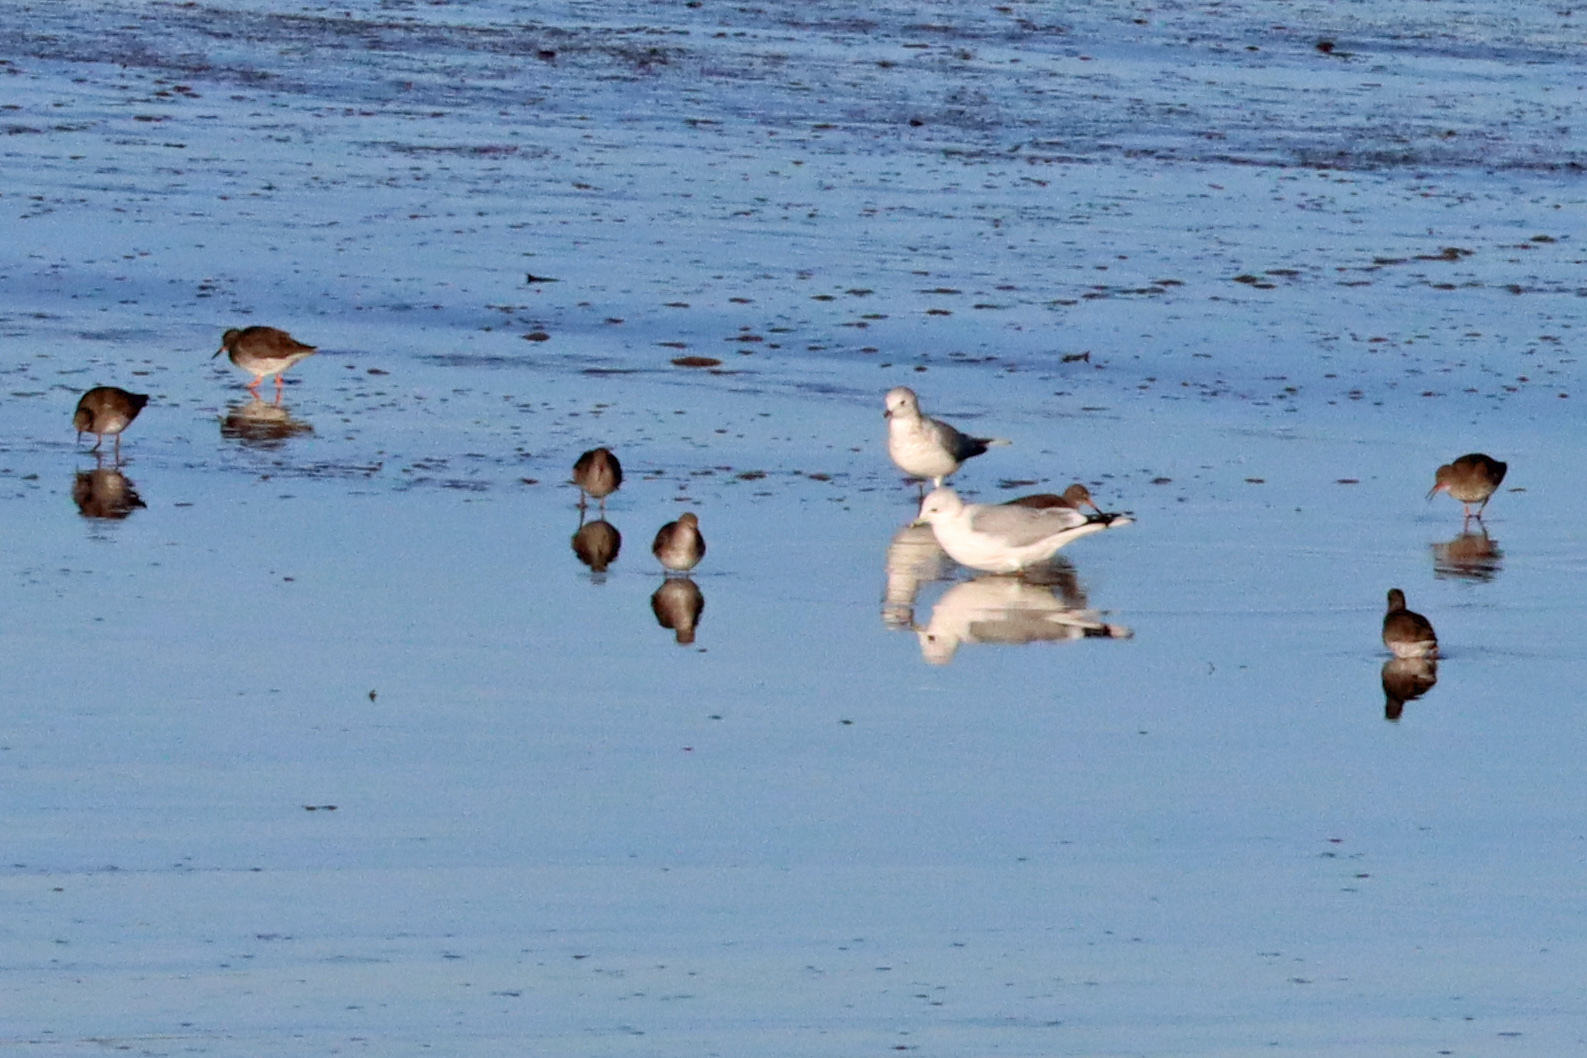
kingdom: Animalia
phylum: Chordata
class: Aves
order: Charadriiformes
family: Laridae
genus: Larus
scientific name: Larus canus
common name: Mew gull
